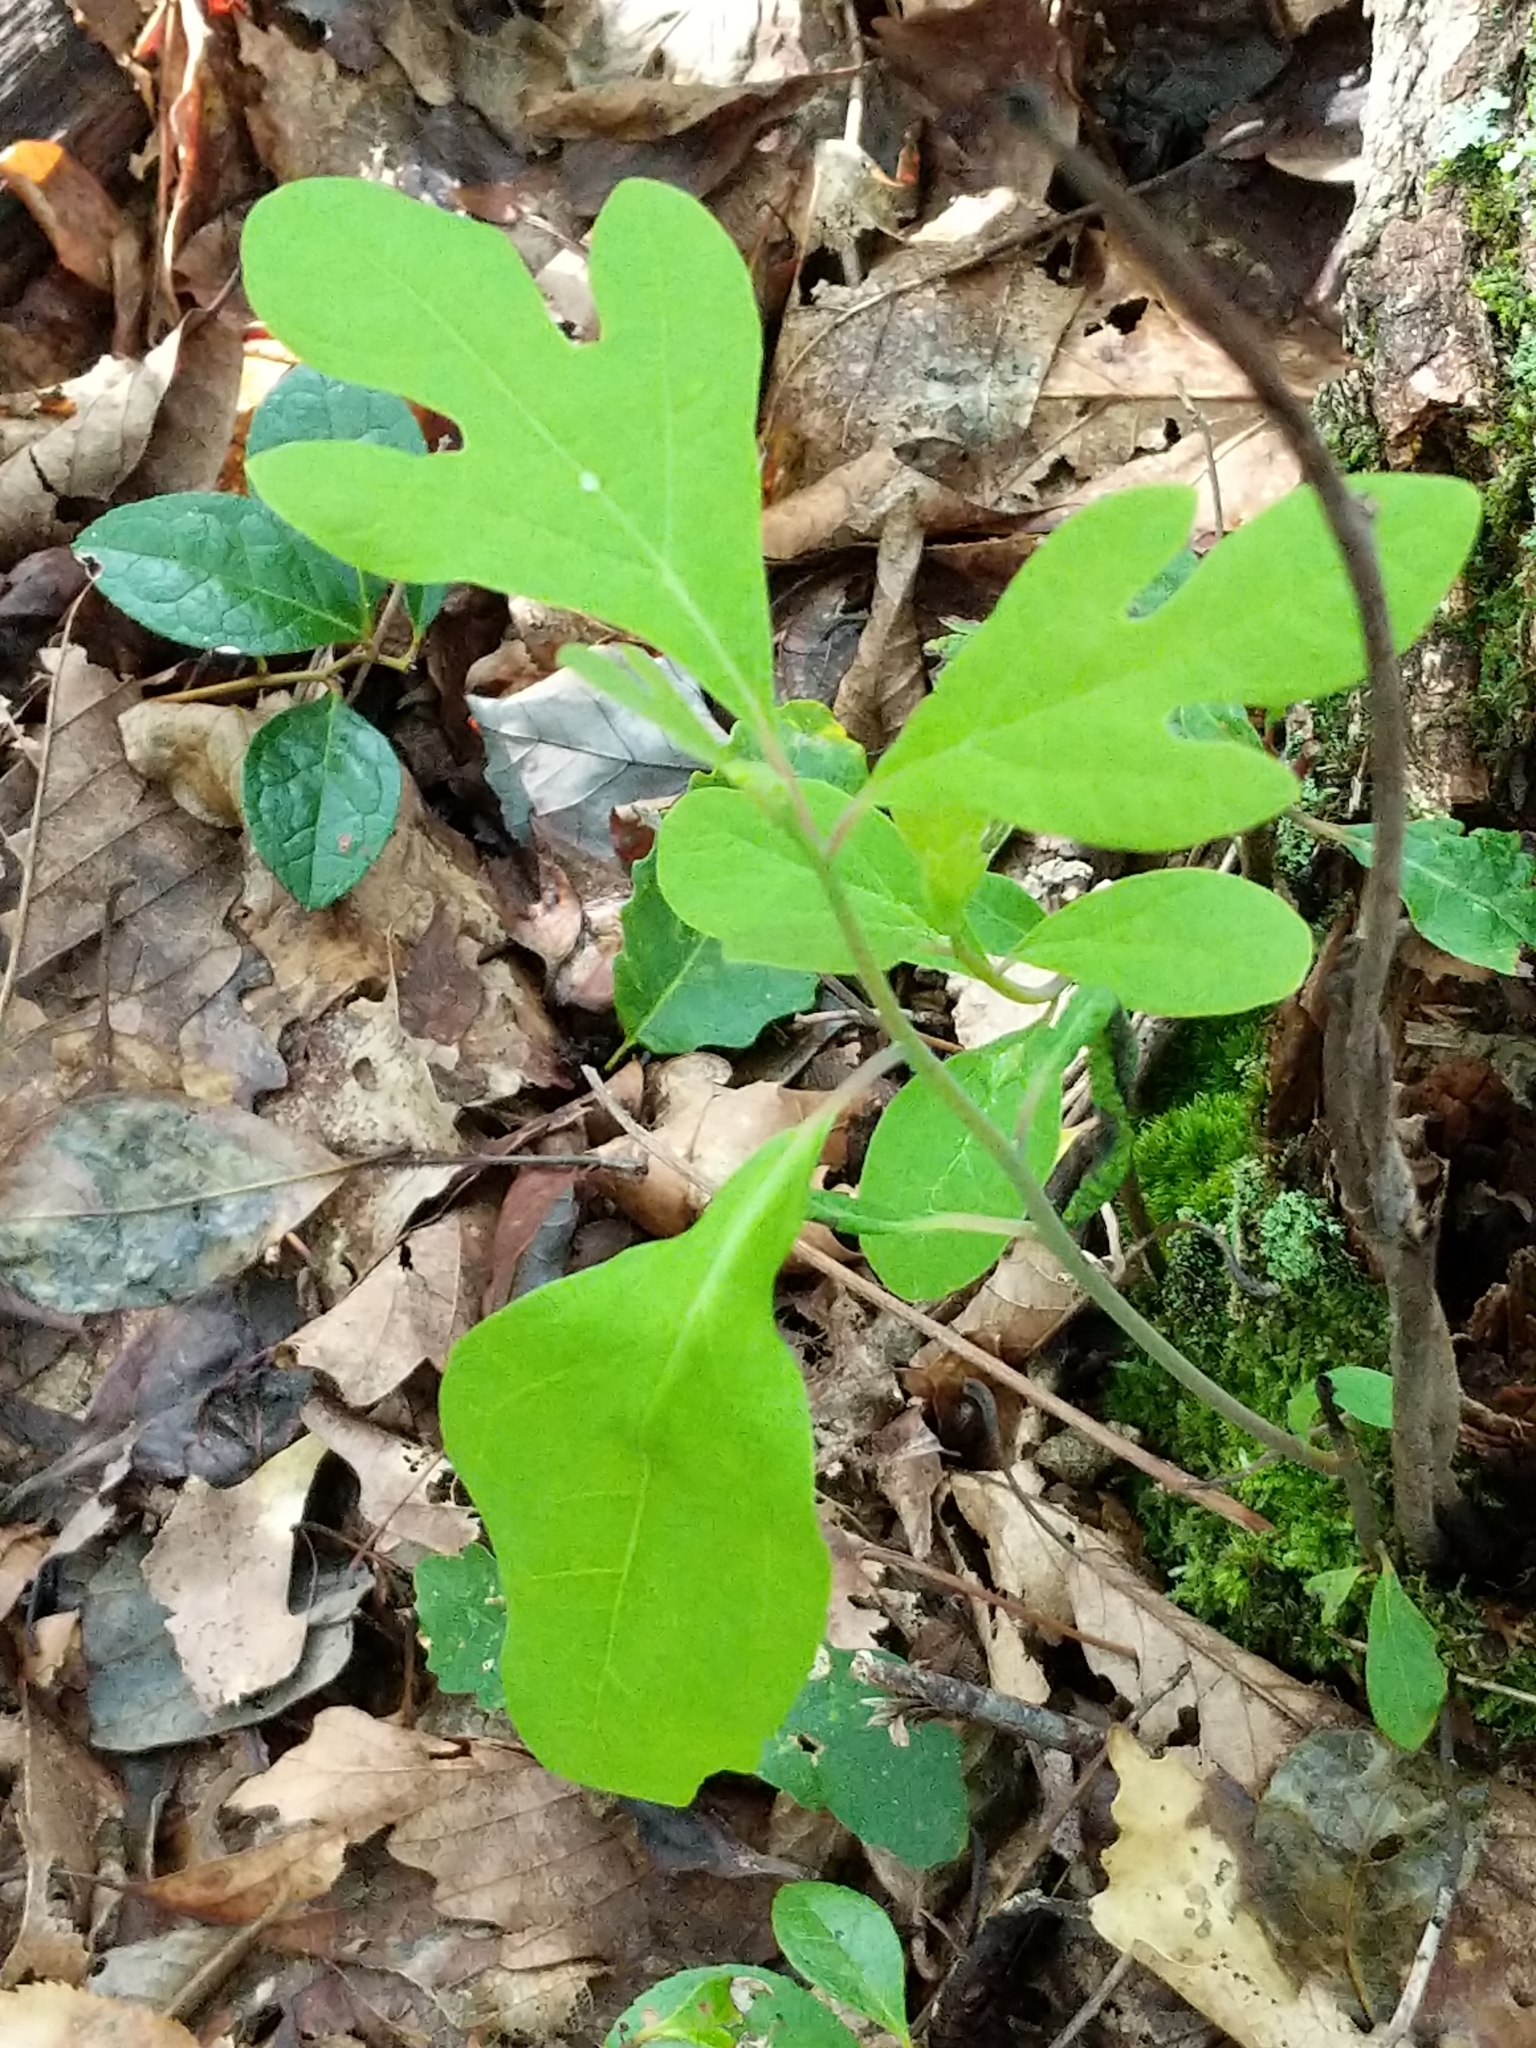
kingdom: Plantae
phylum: Tracheophyta
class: Magnoliopsida
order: Laurales
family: Lauraceae
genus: Sassafras
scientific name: Sassafras albidum
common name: Sassafras
